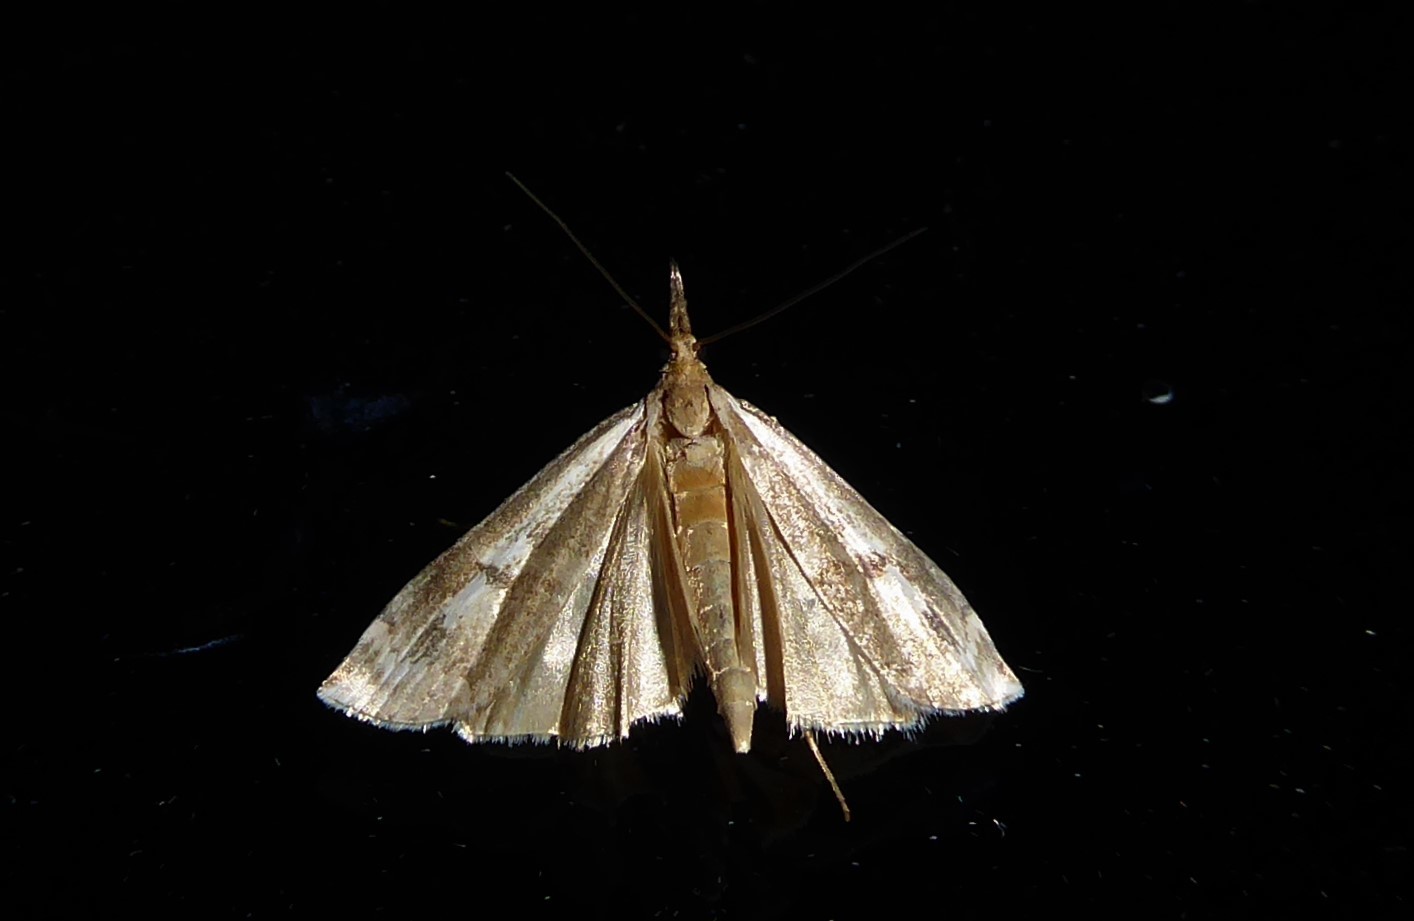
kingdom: Animalia
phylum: Arthropoda
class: Insecta
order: Lepidoptera
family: Crambidae
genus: Orocrambus
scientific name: Orocrambus vulgaris
